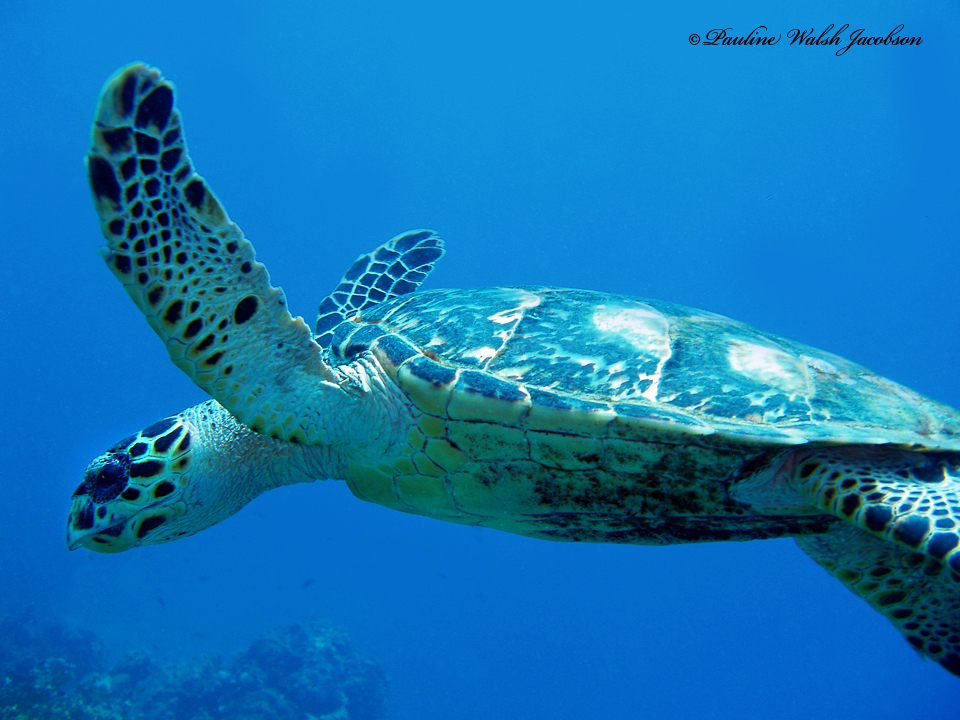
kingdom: Animalia
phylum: Chordata
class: Testudines
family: Cheloniidae
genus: Eretmochelys
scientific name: Eretmochelys imbricata
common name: Hawksbill turtle
